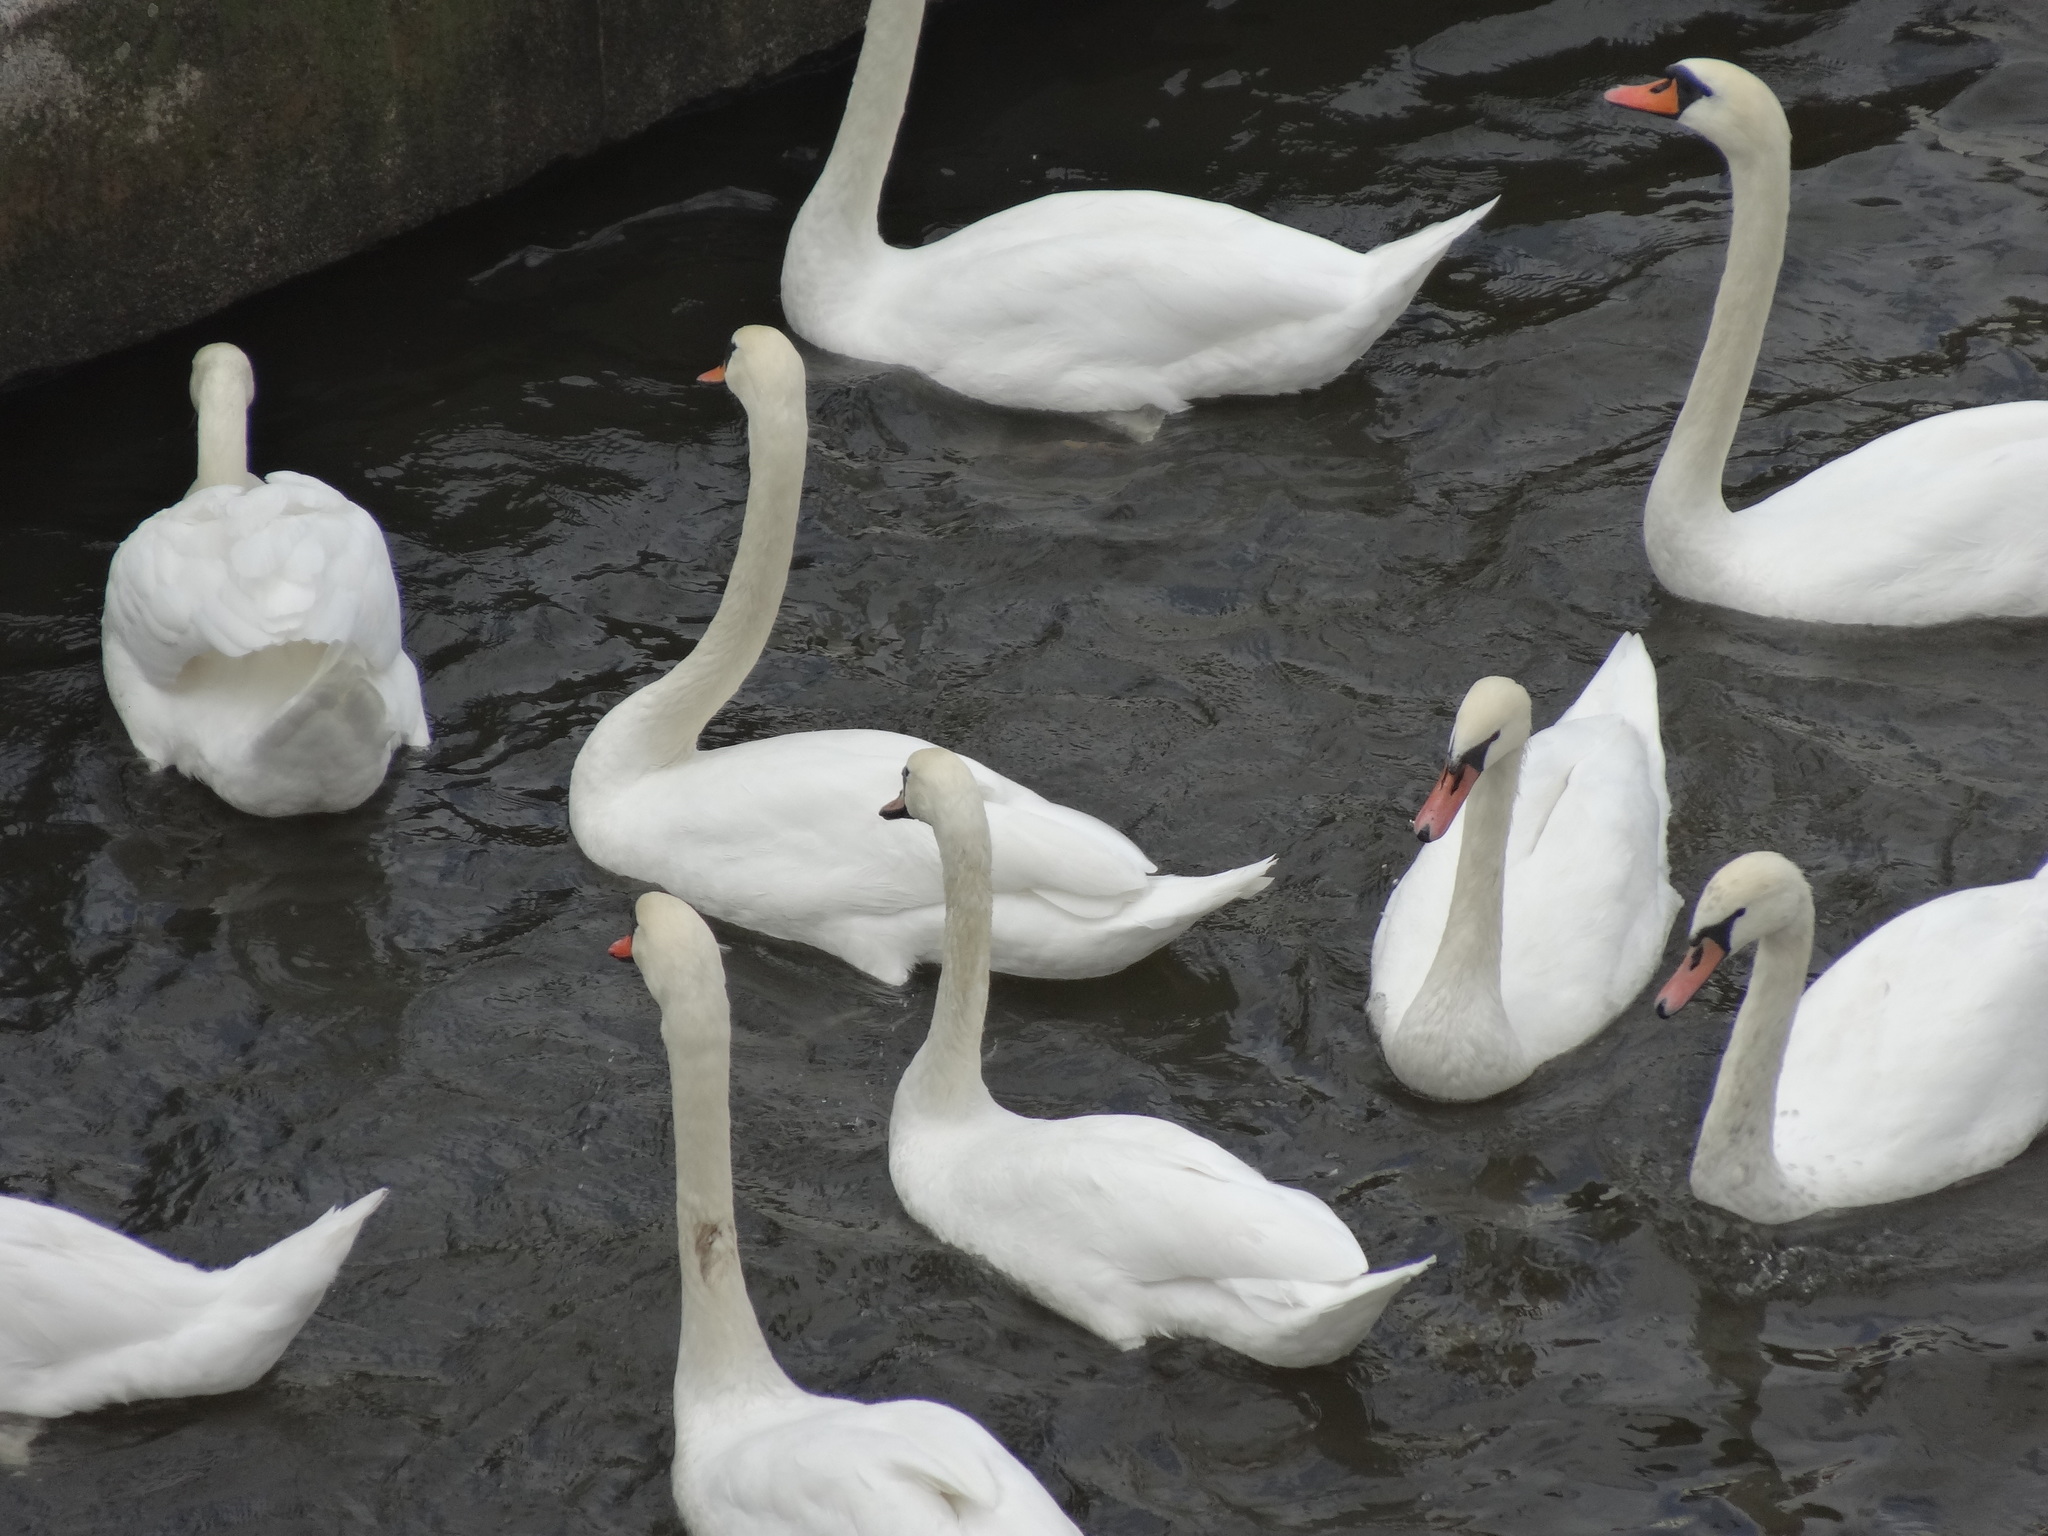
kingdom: Animalia
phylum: Chordata
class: Aves
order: Anseriformes
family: Anatidae
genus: Cygnus
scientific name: Cygnus olor
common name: Mute swan
